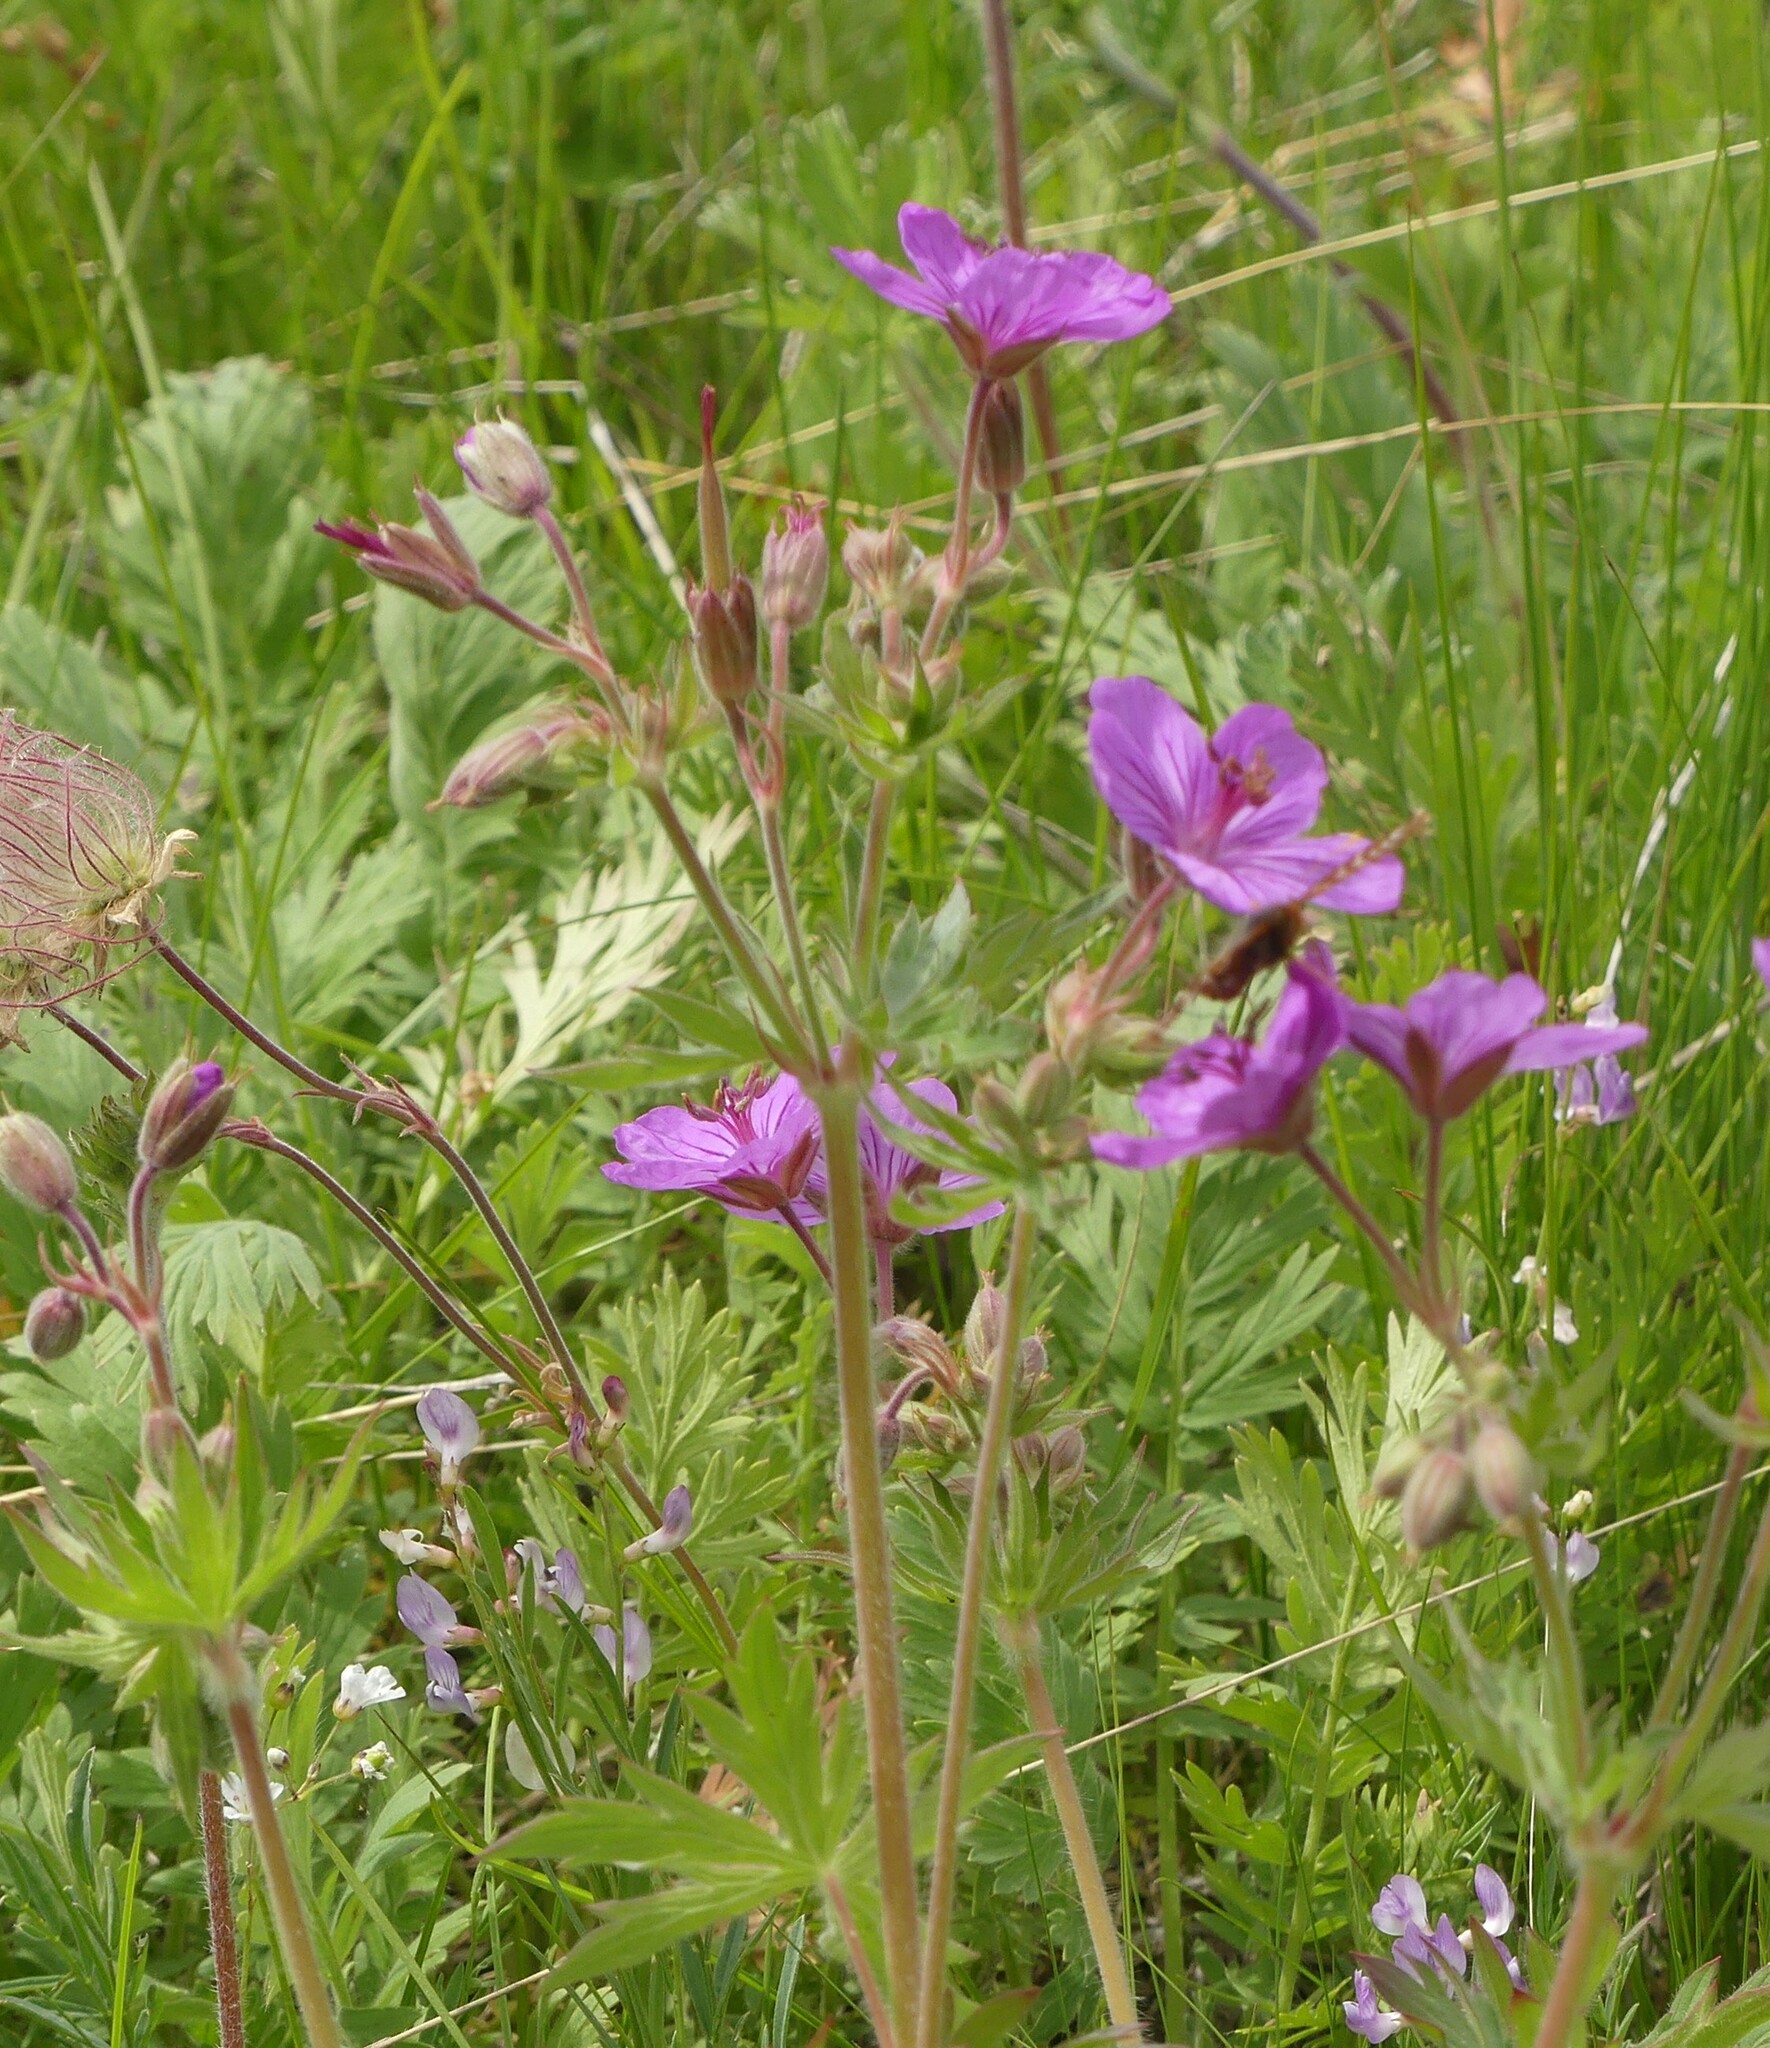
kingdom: Plantae
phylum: Tracheophyta
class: Magnoliopsida
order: Geraniales
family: Geraniaceae
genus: Geranium
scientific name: Geranium viscosissimum
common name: Purple geranium
